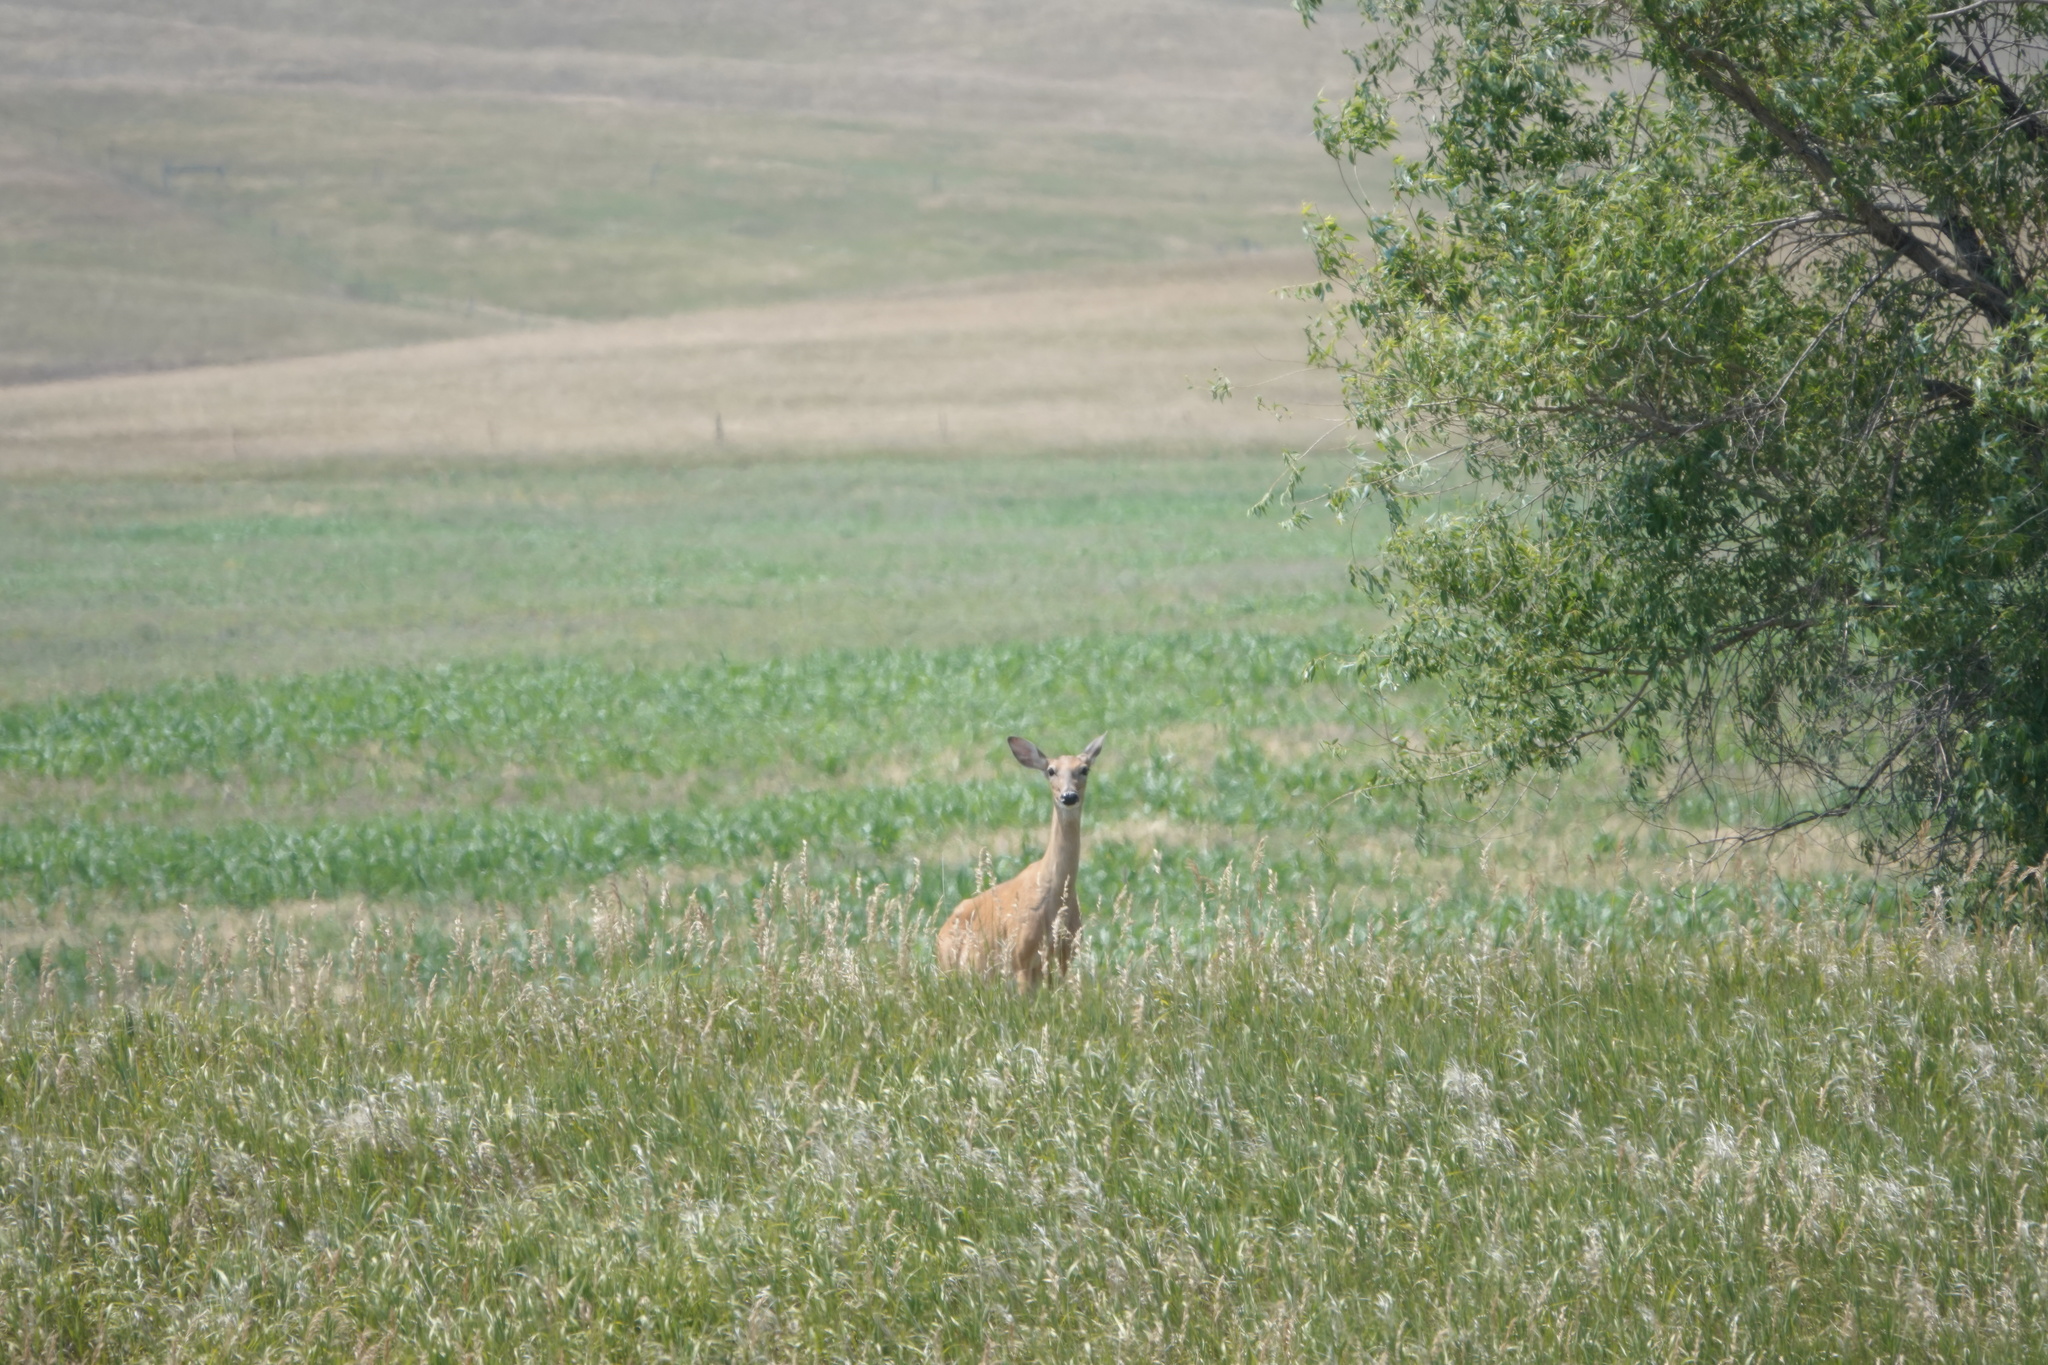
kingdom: Animalia
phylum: Chordata
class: Mammalia
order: Artiodactyla
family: Cervidae
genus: Odocoileus
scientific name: Odocoileus virginianus
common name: White-tailed deer
